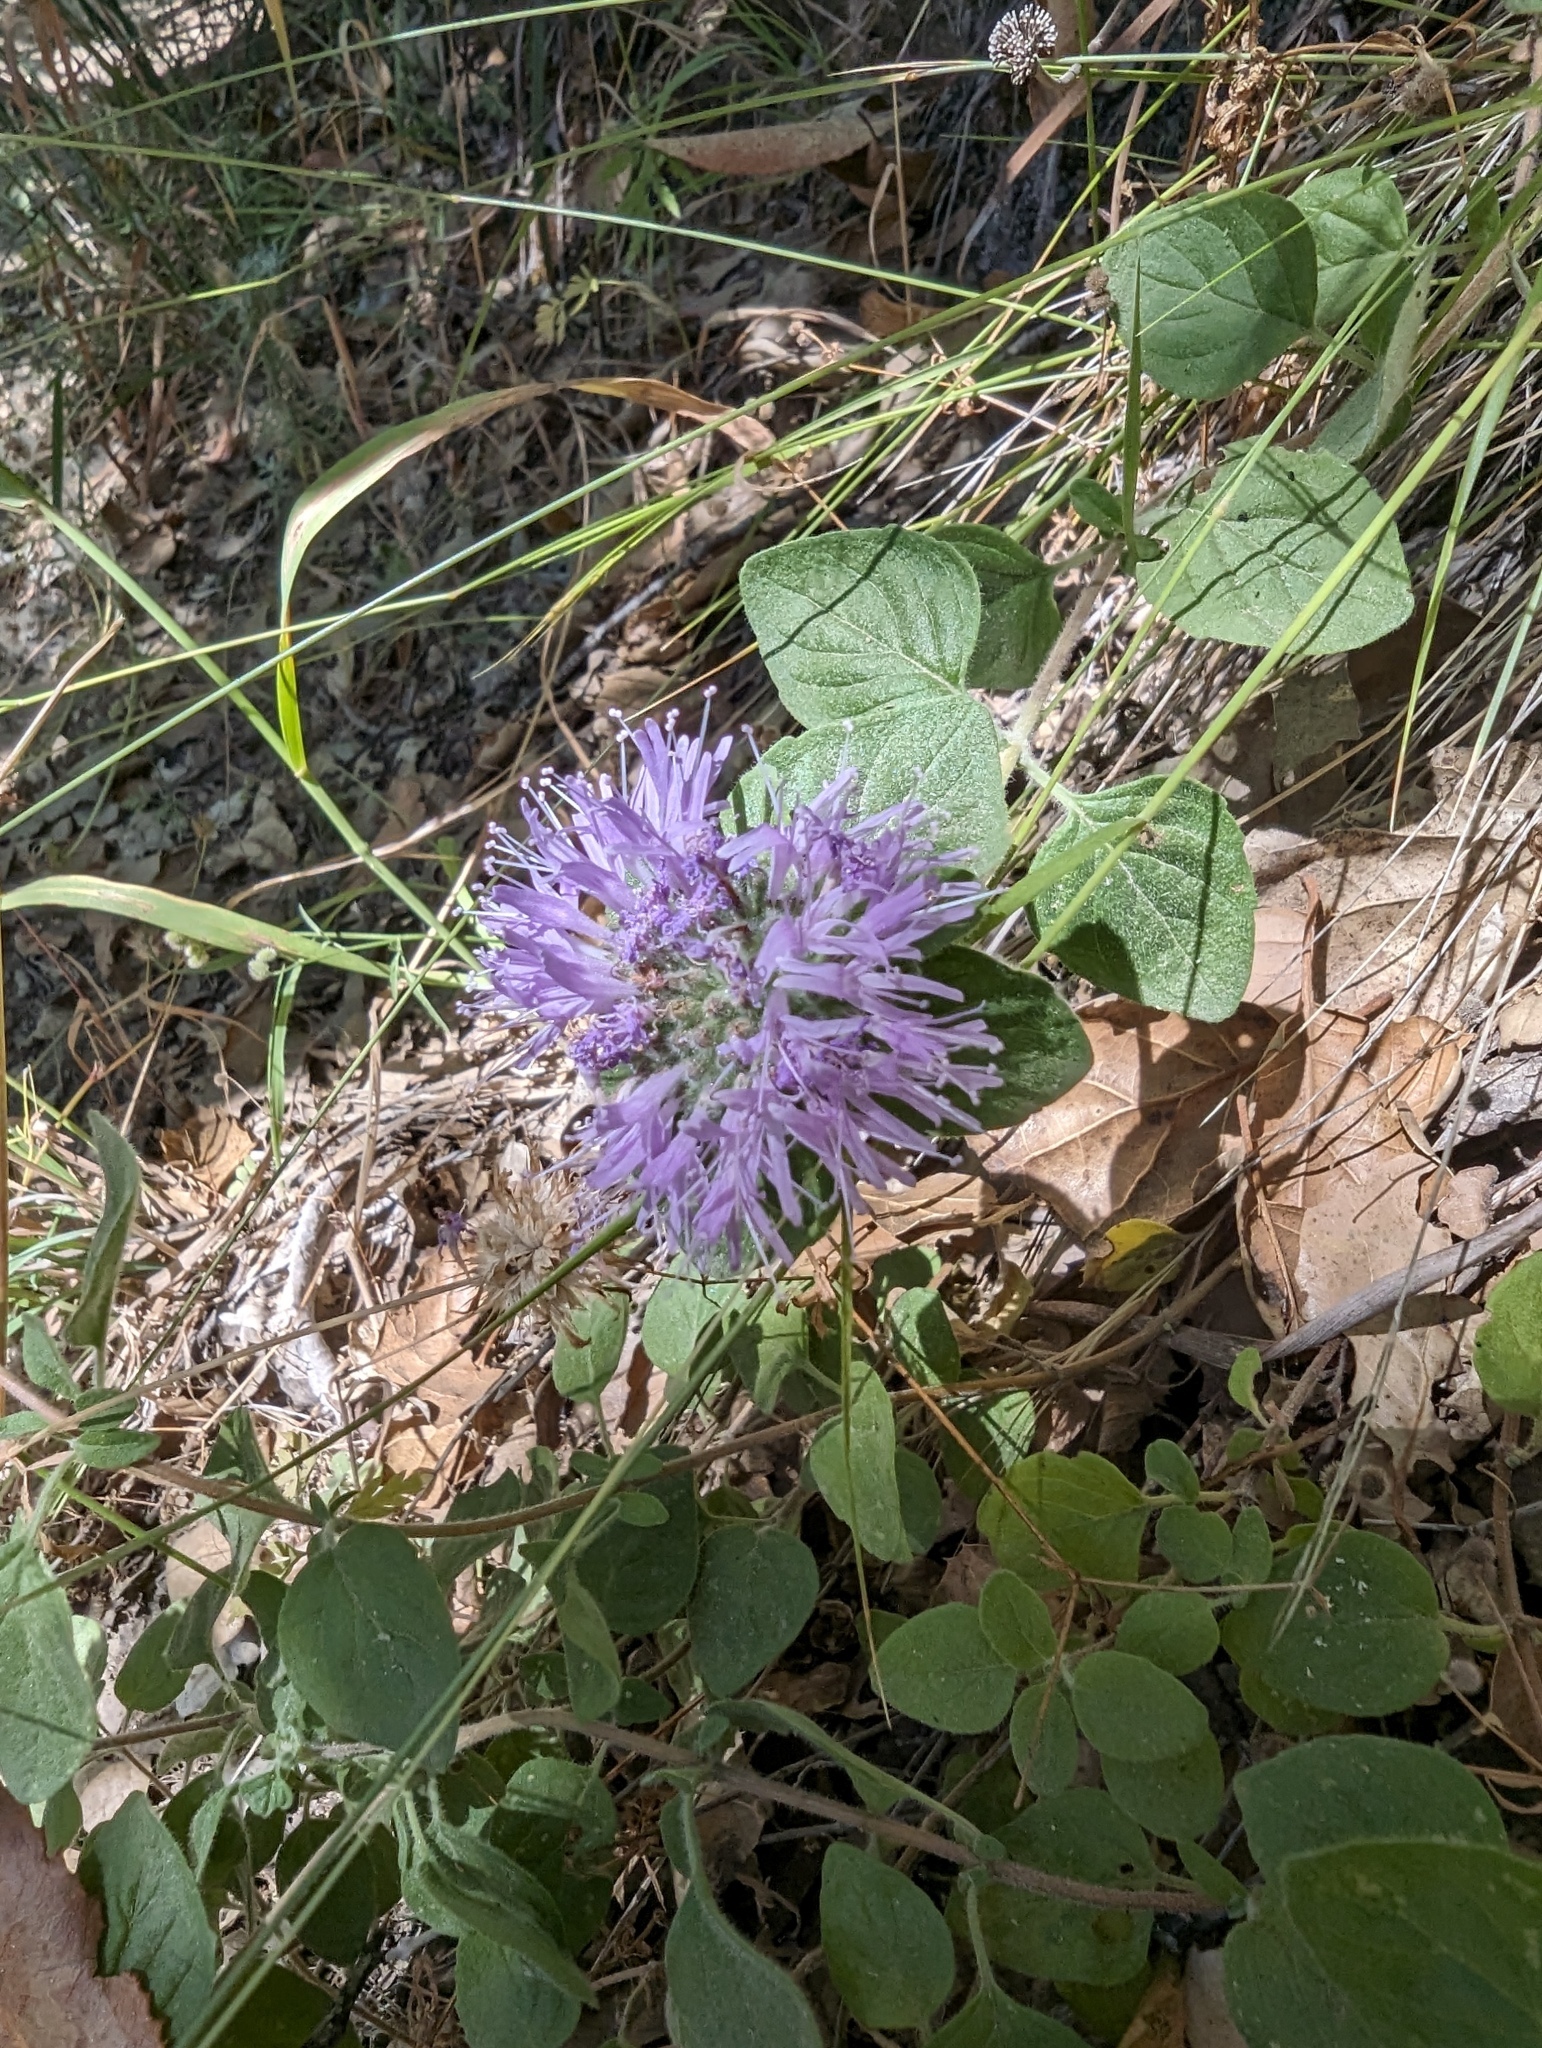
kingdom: Plantae
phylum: Tracheophyta
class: Magnoliopsida
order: Lamiales
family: Lamiaceae
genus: Monardella
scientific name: Monardella odoratissima
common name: Pacific monardella
